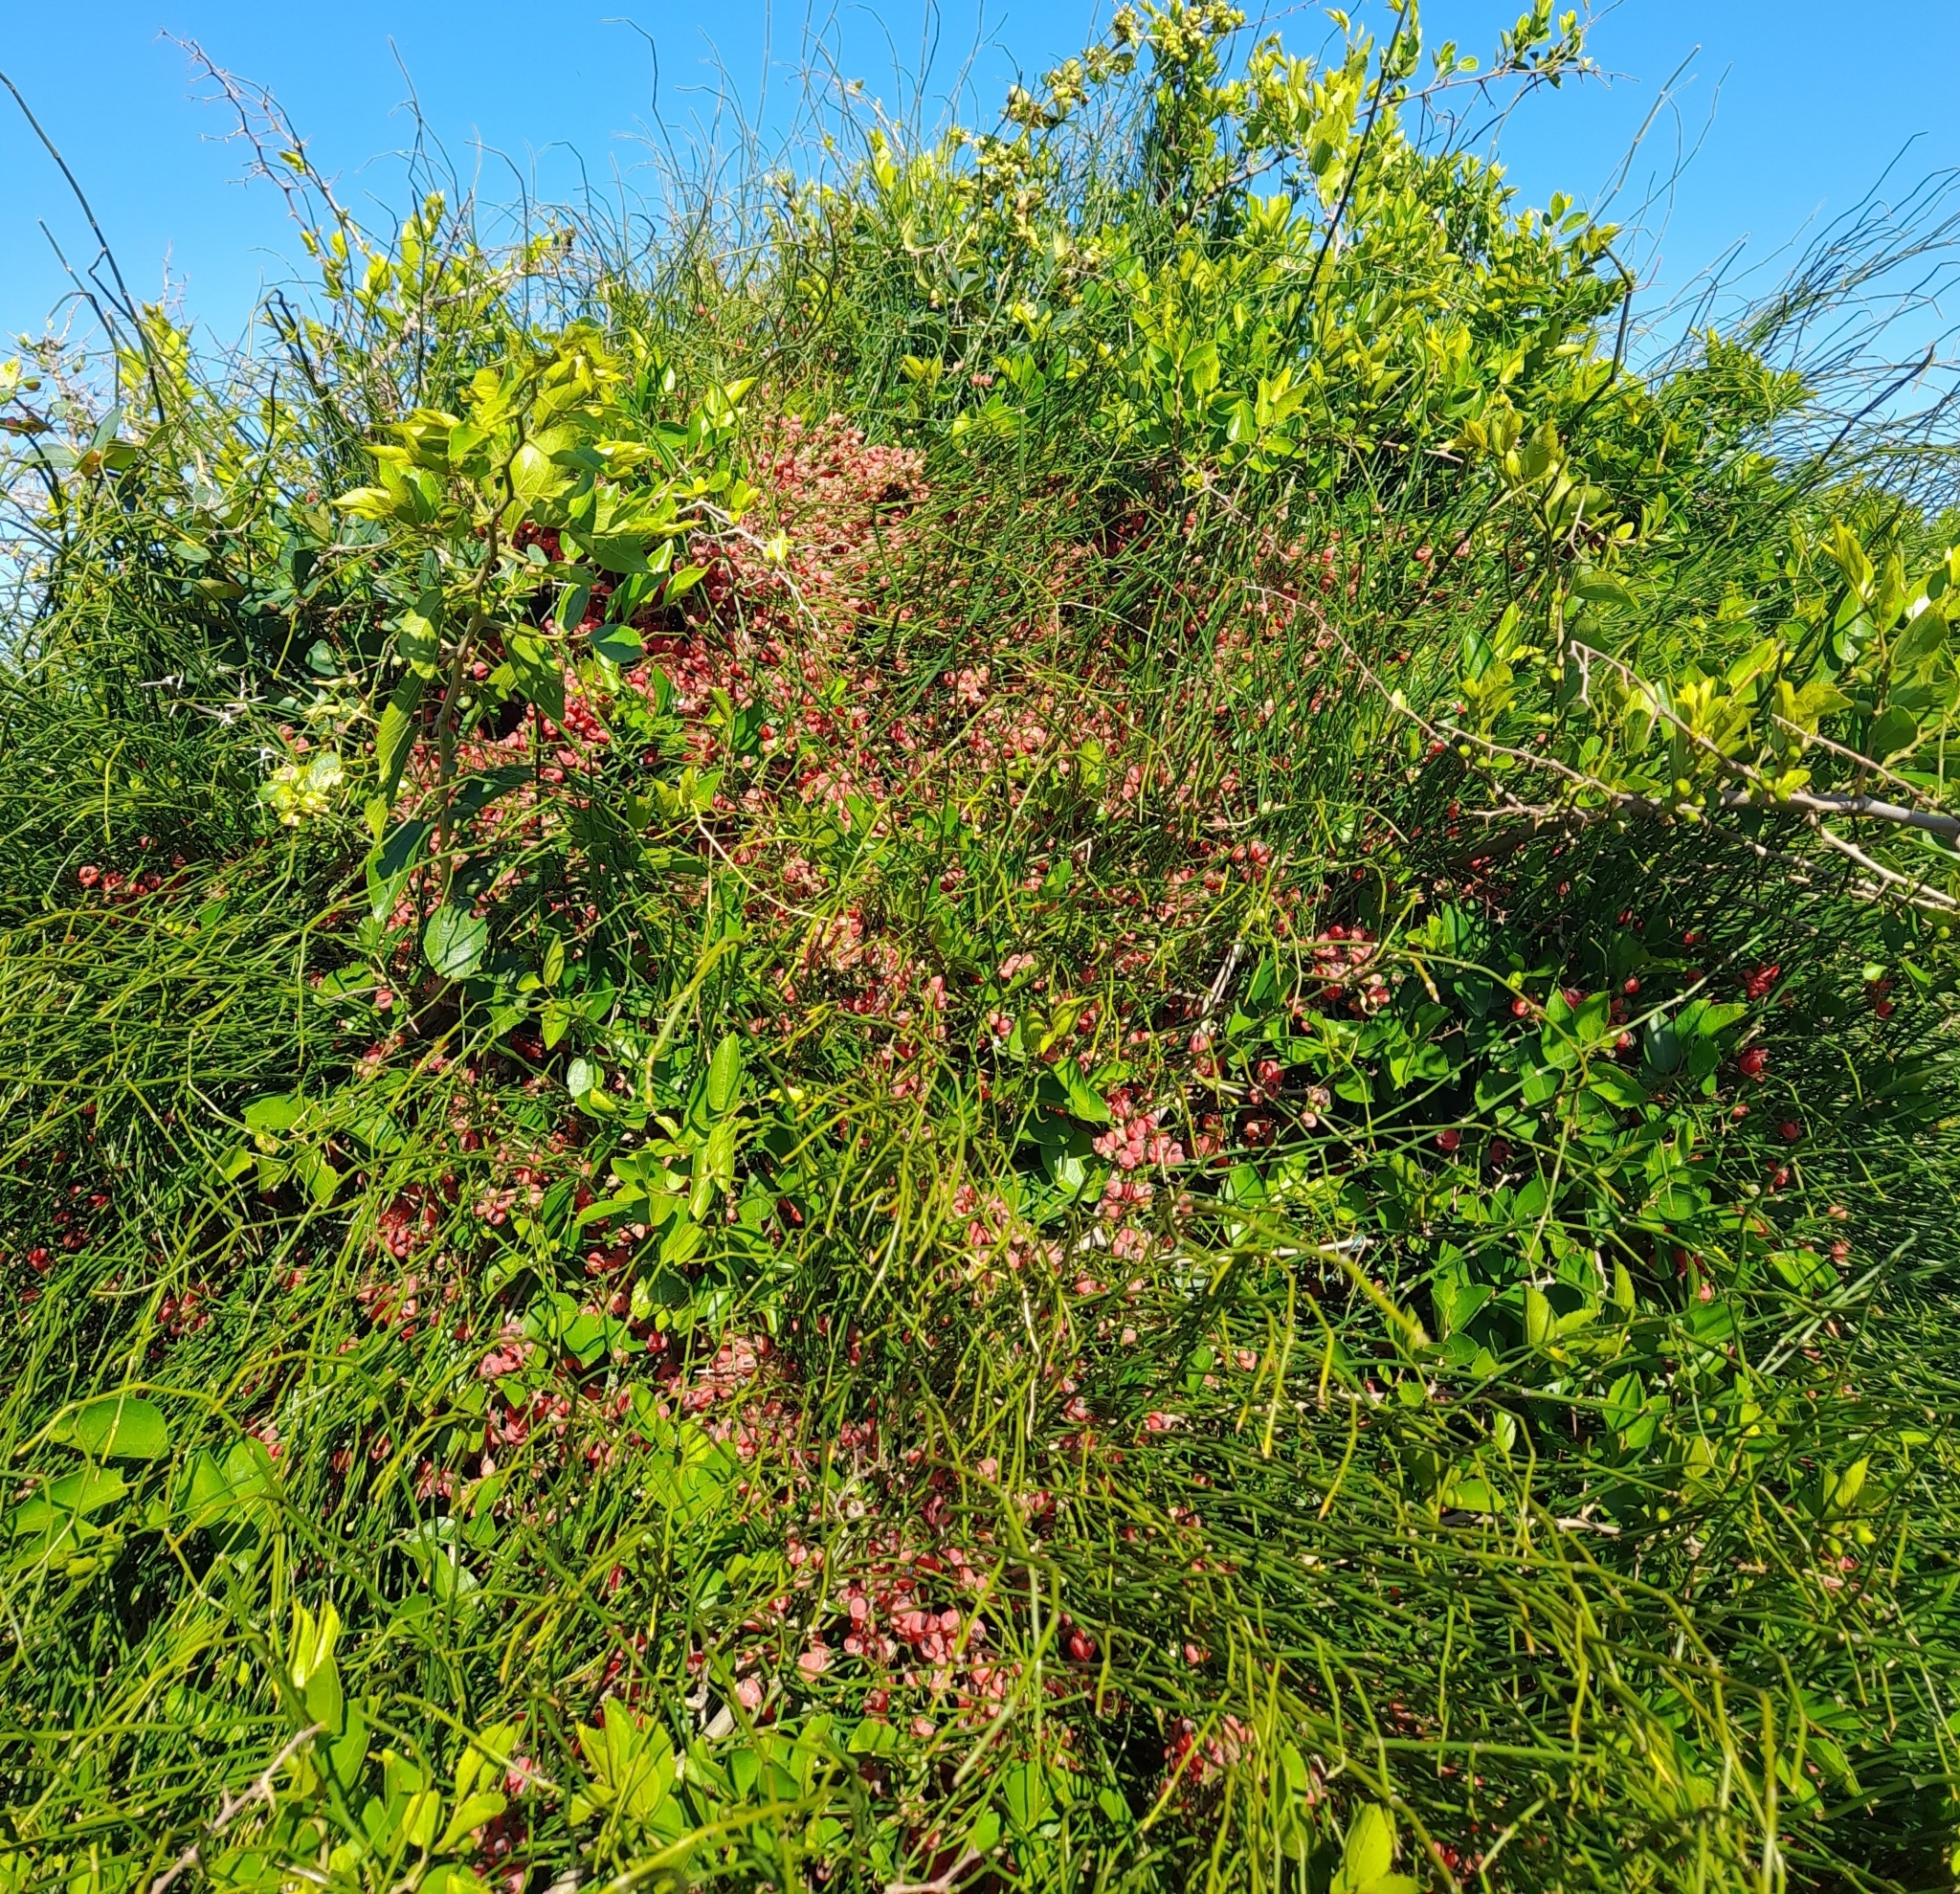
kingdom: Plantae
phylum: Tracheophyta
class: Gnetopsida
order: Ephedrales
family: Ephedraceae
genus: Ephedra
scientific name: Ephedra tweedieana
